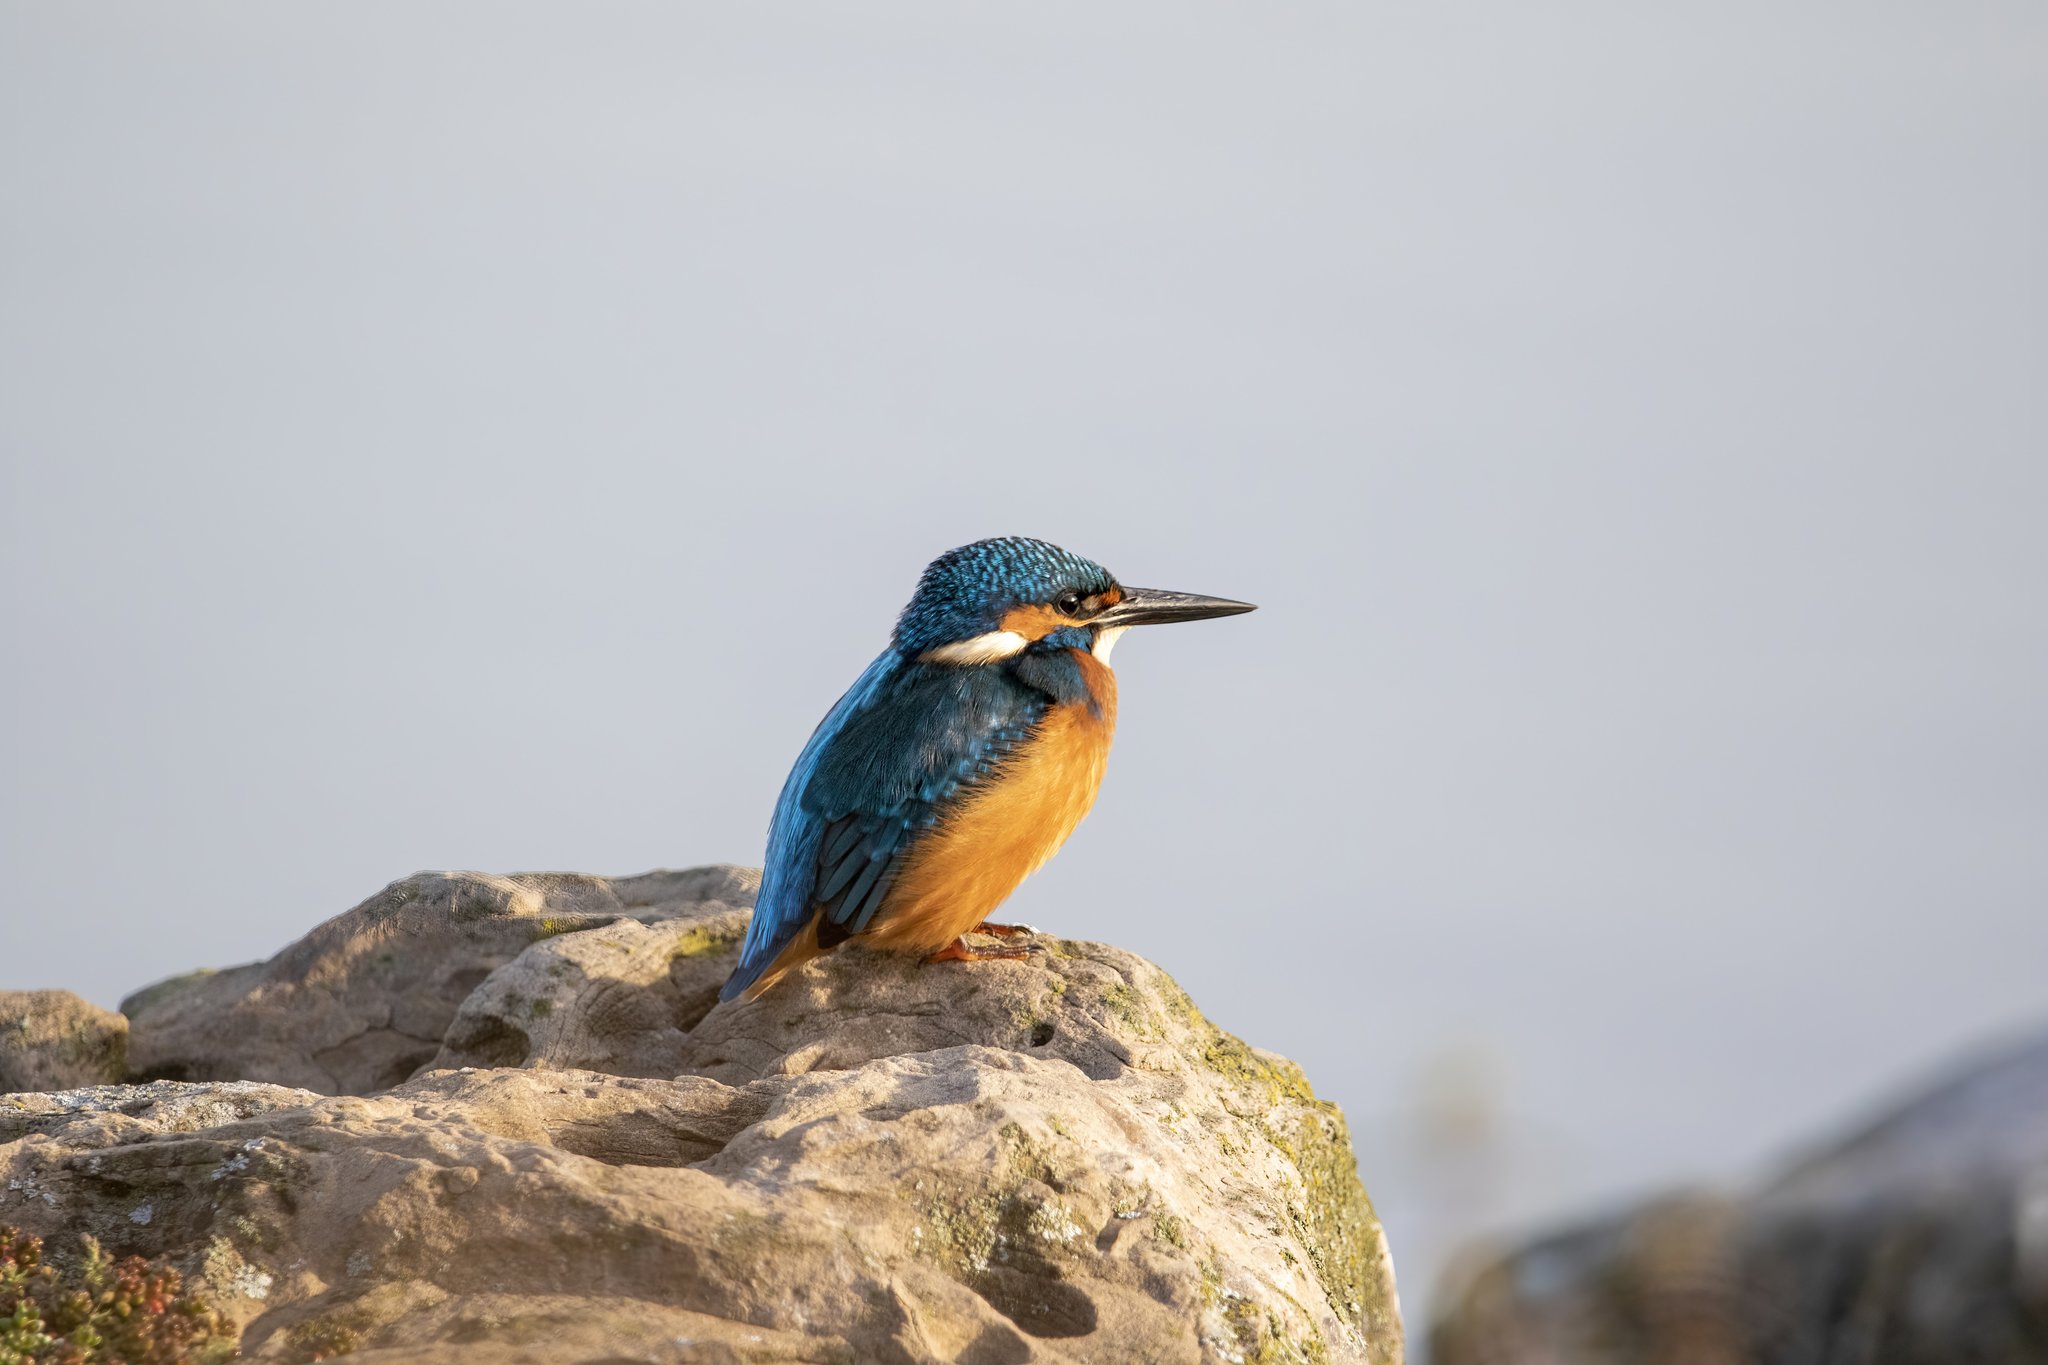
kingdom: Animalia
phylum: Chordata
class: Aves
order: Coraciiformes
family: Alcedinidae
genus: Alcedo
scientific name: Alcedo atthis
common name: Common kingfisher
